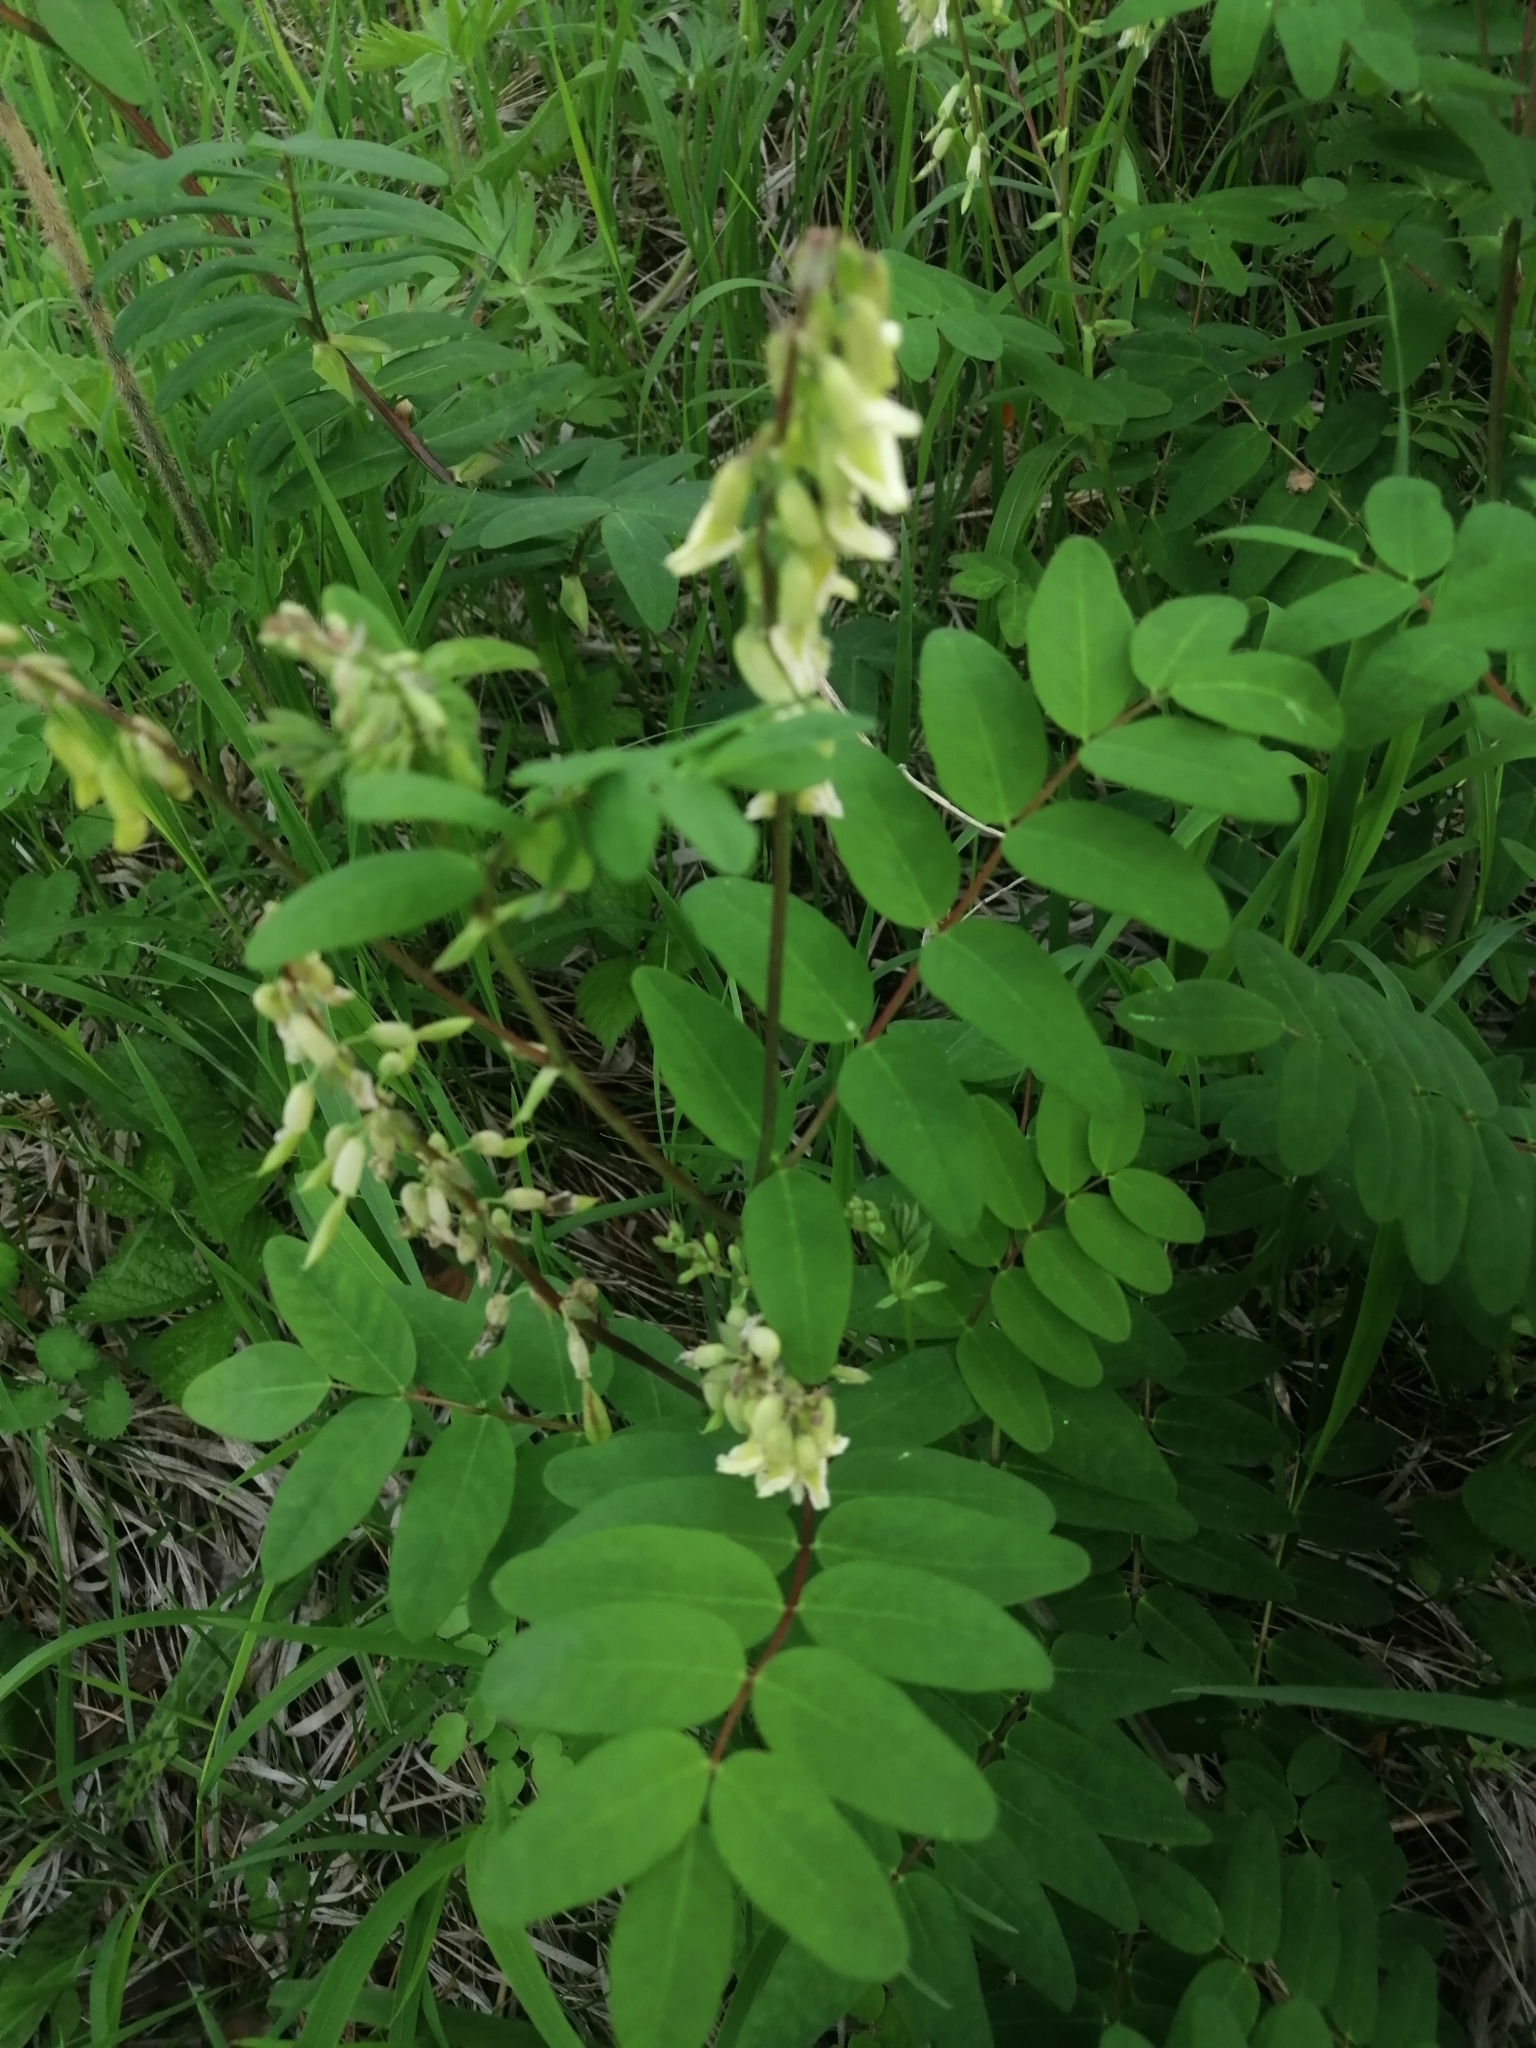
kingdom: Plantae
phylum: Tracheophyta
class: Magnoliopsida
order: Fabales
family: Fabaceae
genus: Astragalus
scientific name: Astragalus frigidus
